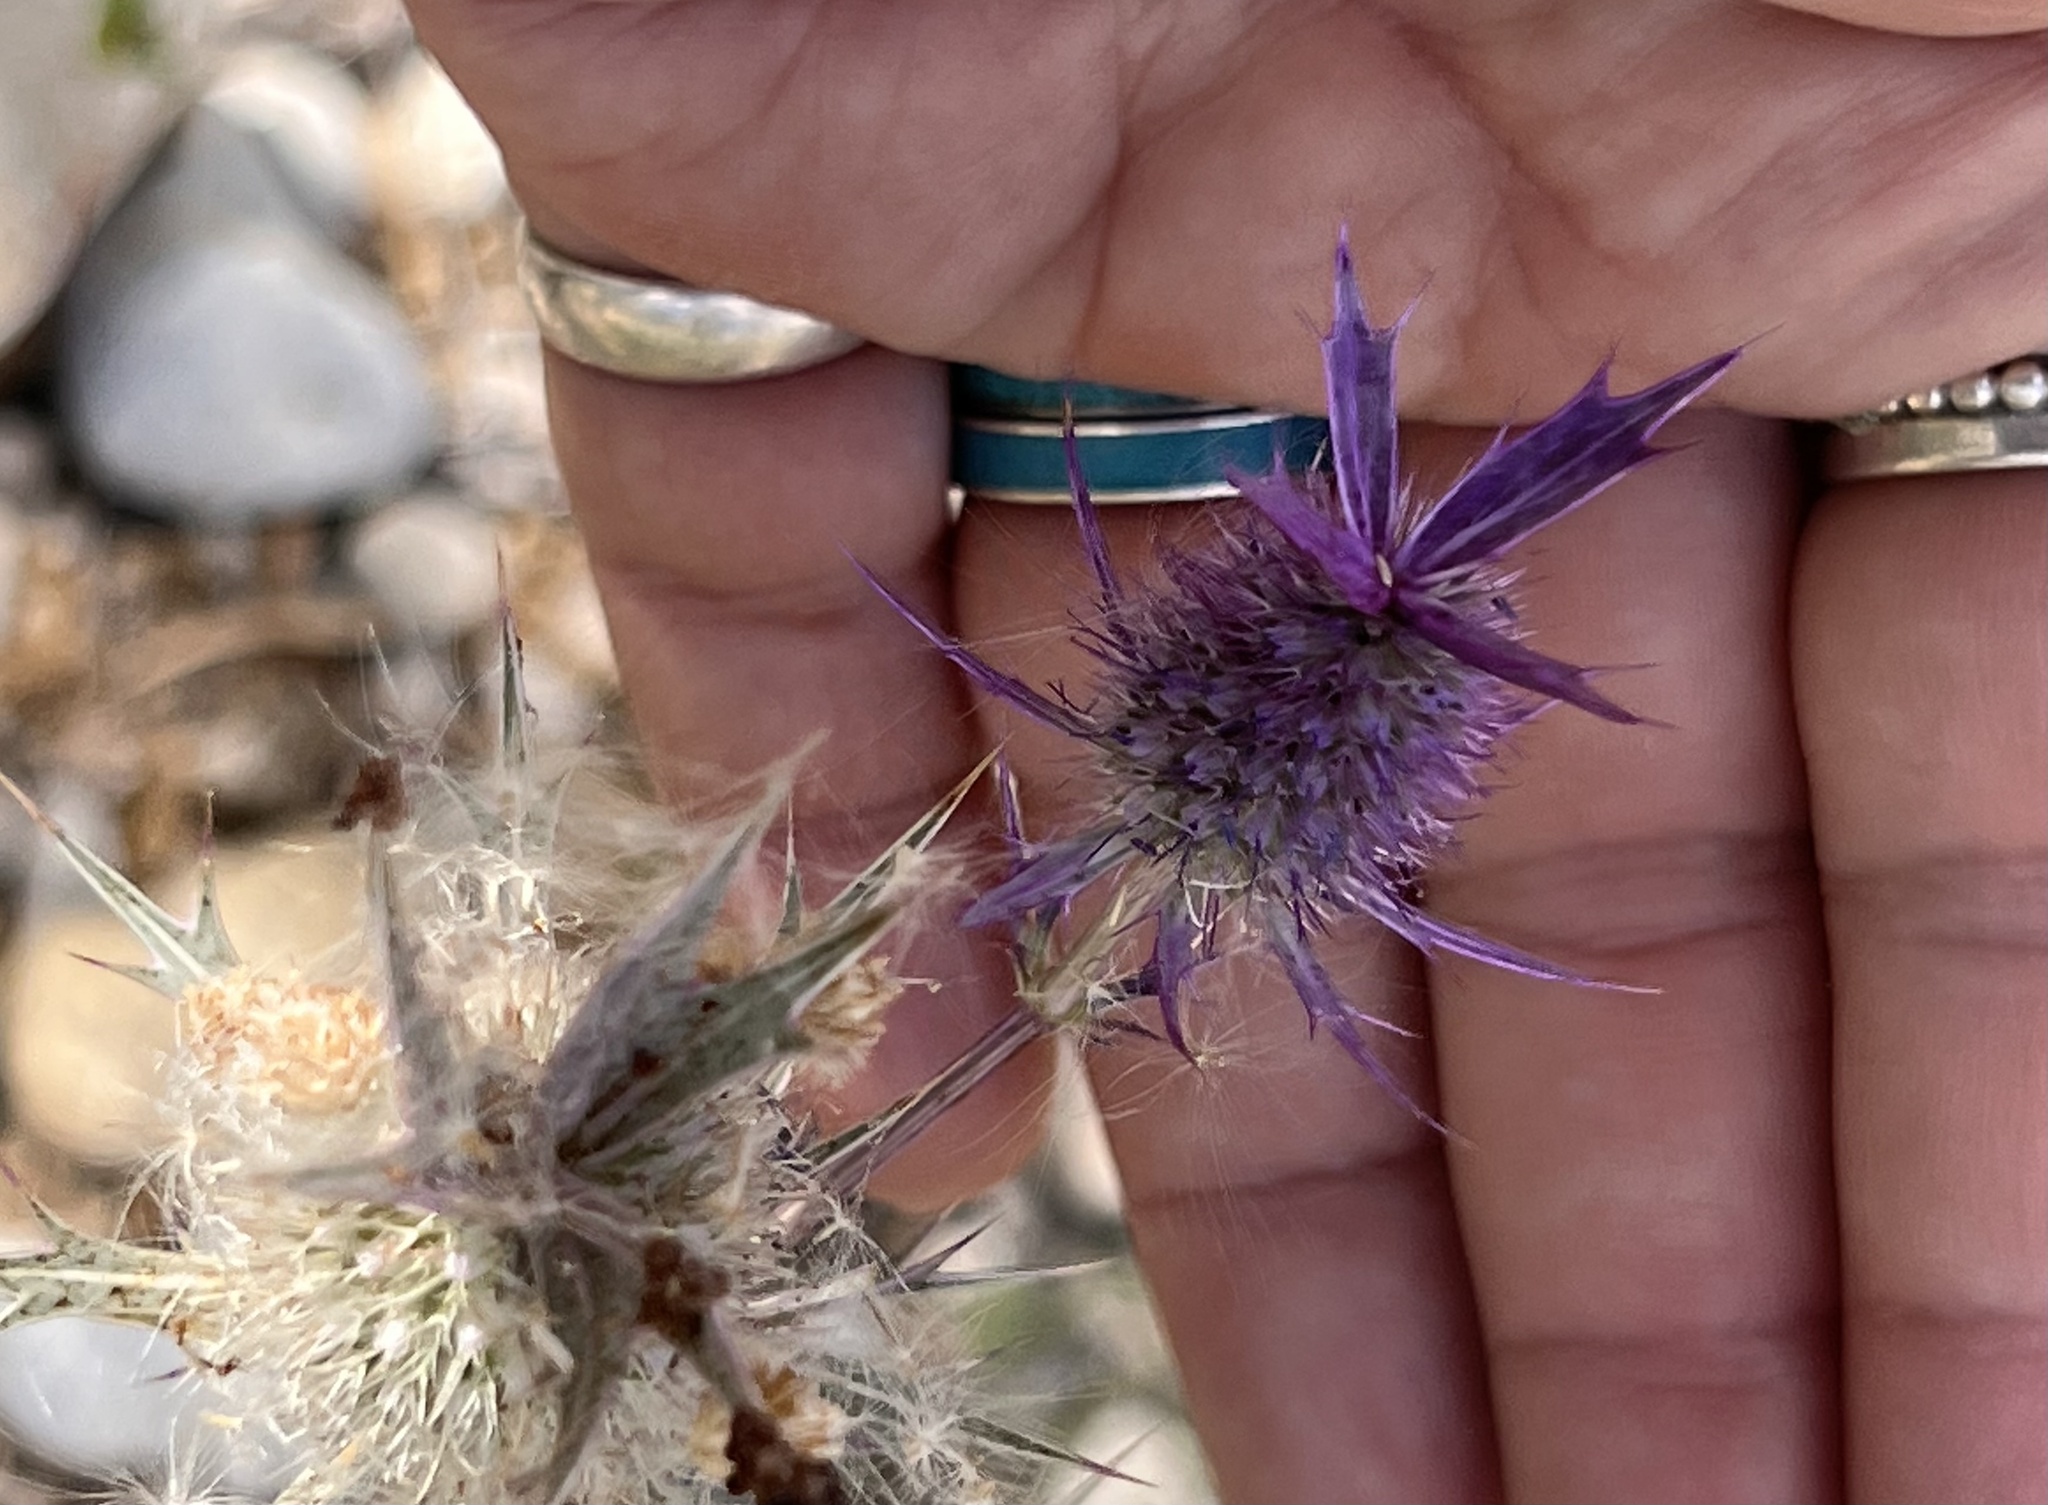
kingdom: Plantae
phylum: Tracheophyta
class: Magnoliopsida
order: Apiales
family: Apiaceae
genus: Eryngium
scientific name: Eryngium leavenworthii
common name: Leavenworth's eryngo
